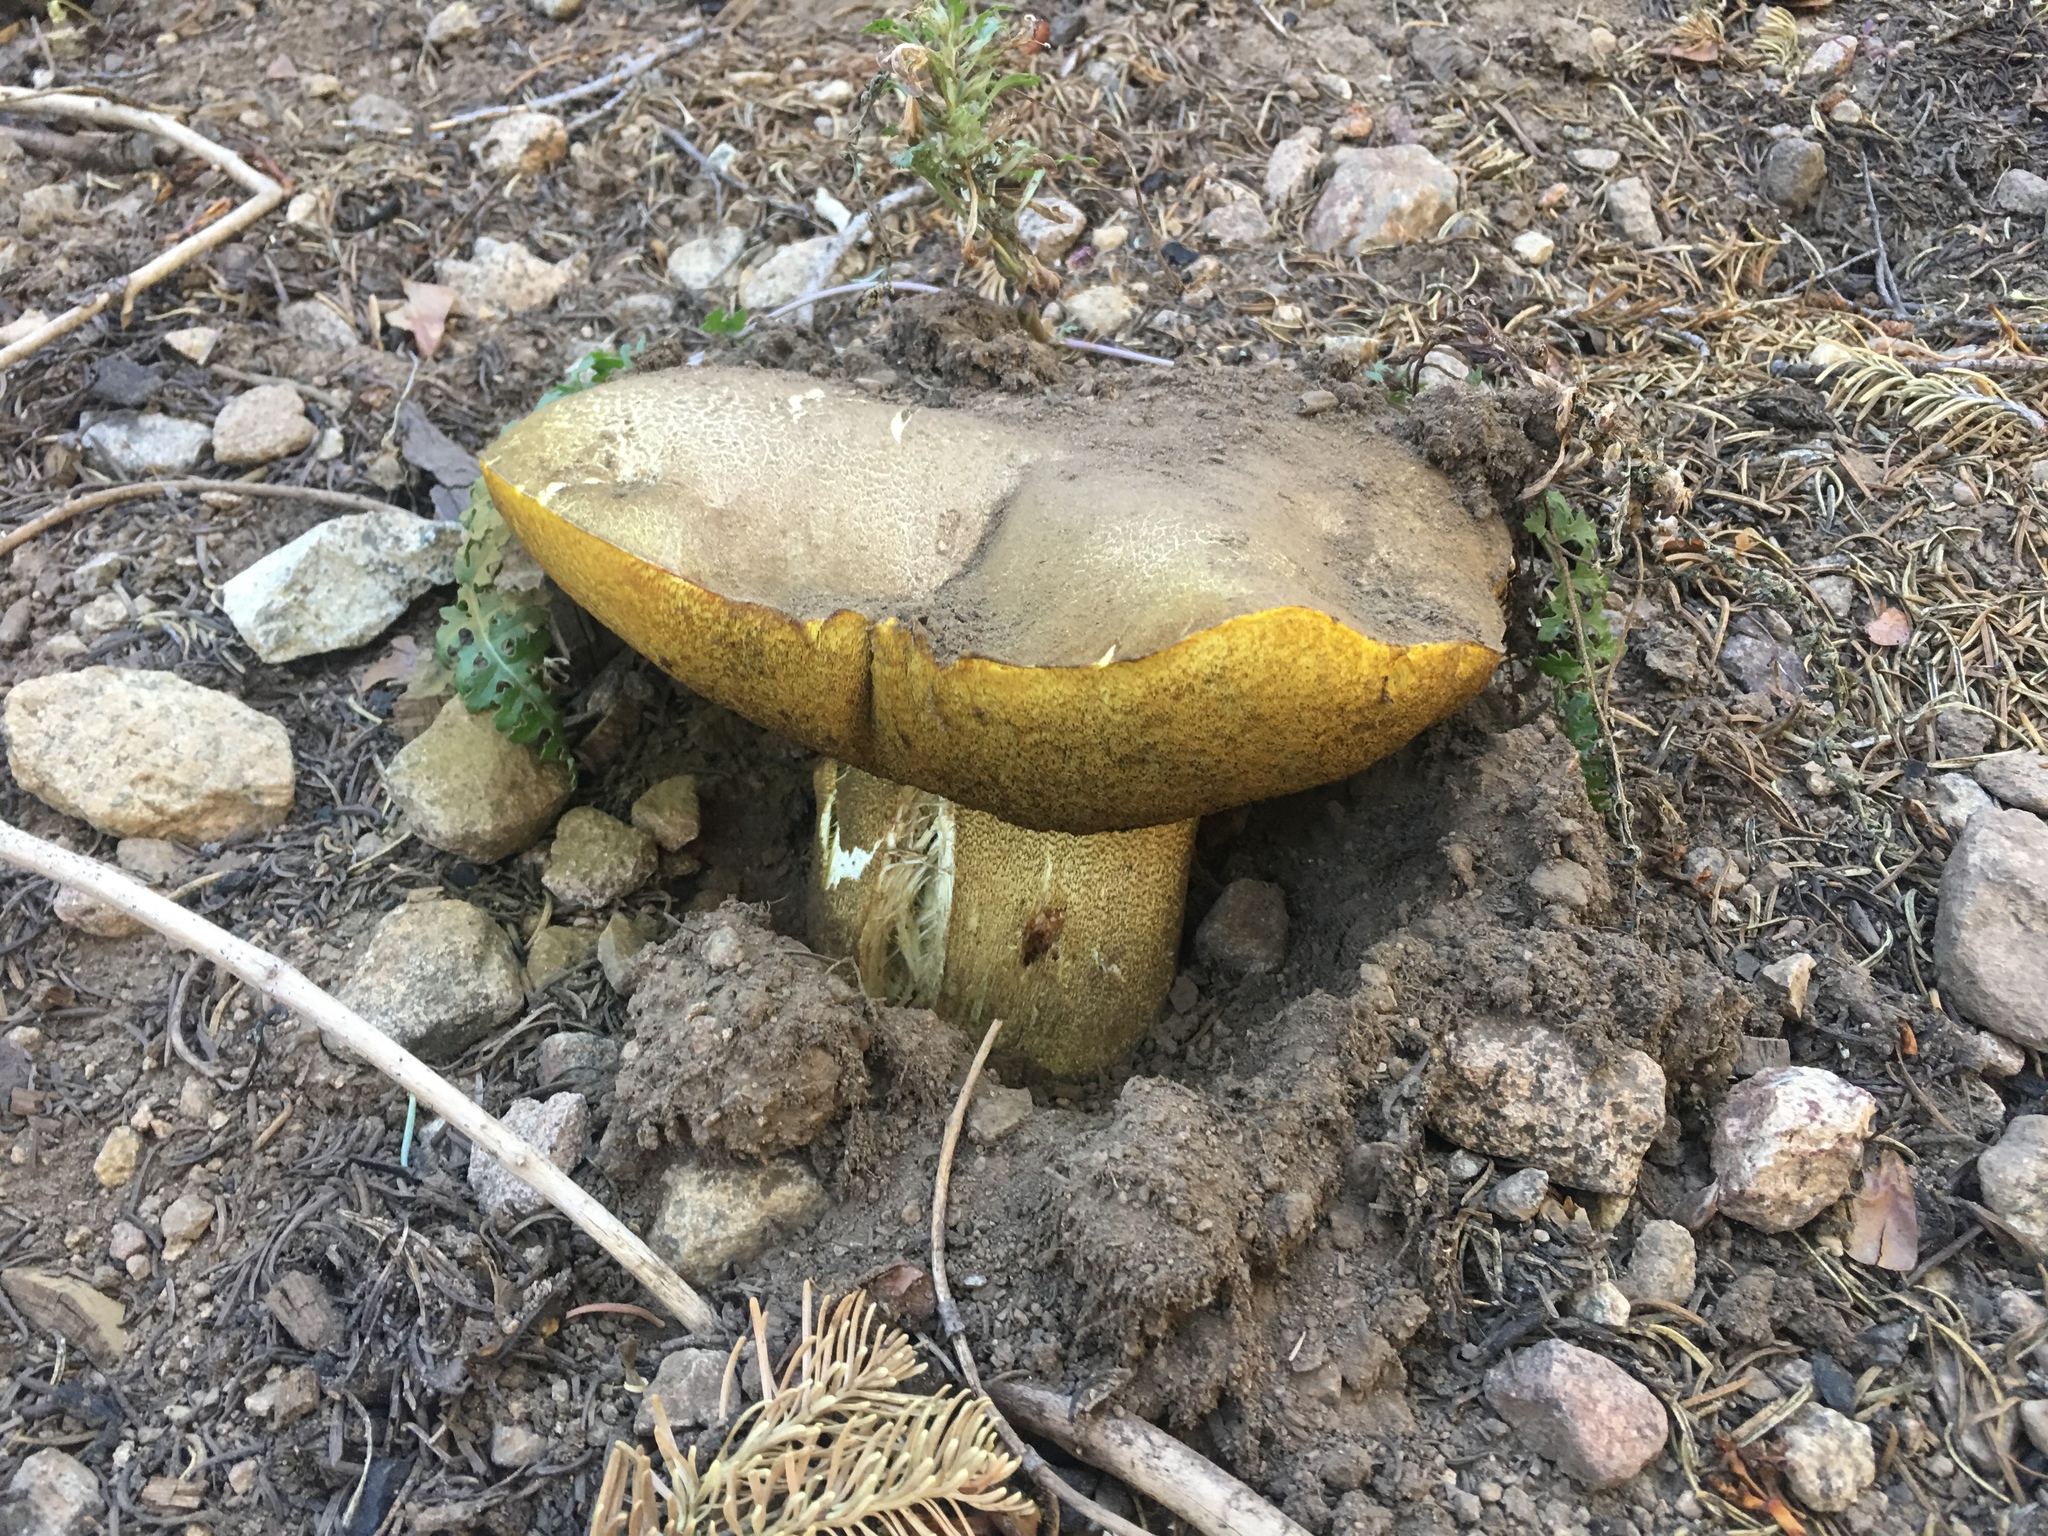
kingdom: Fungi
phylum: Basidiomycota
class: Agaricomycetes
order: Boletales
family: Boletaceae
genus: Boletus
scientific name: Boletus edulis
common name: Cep
